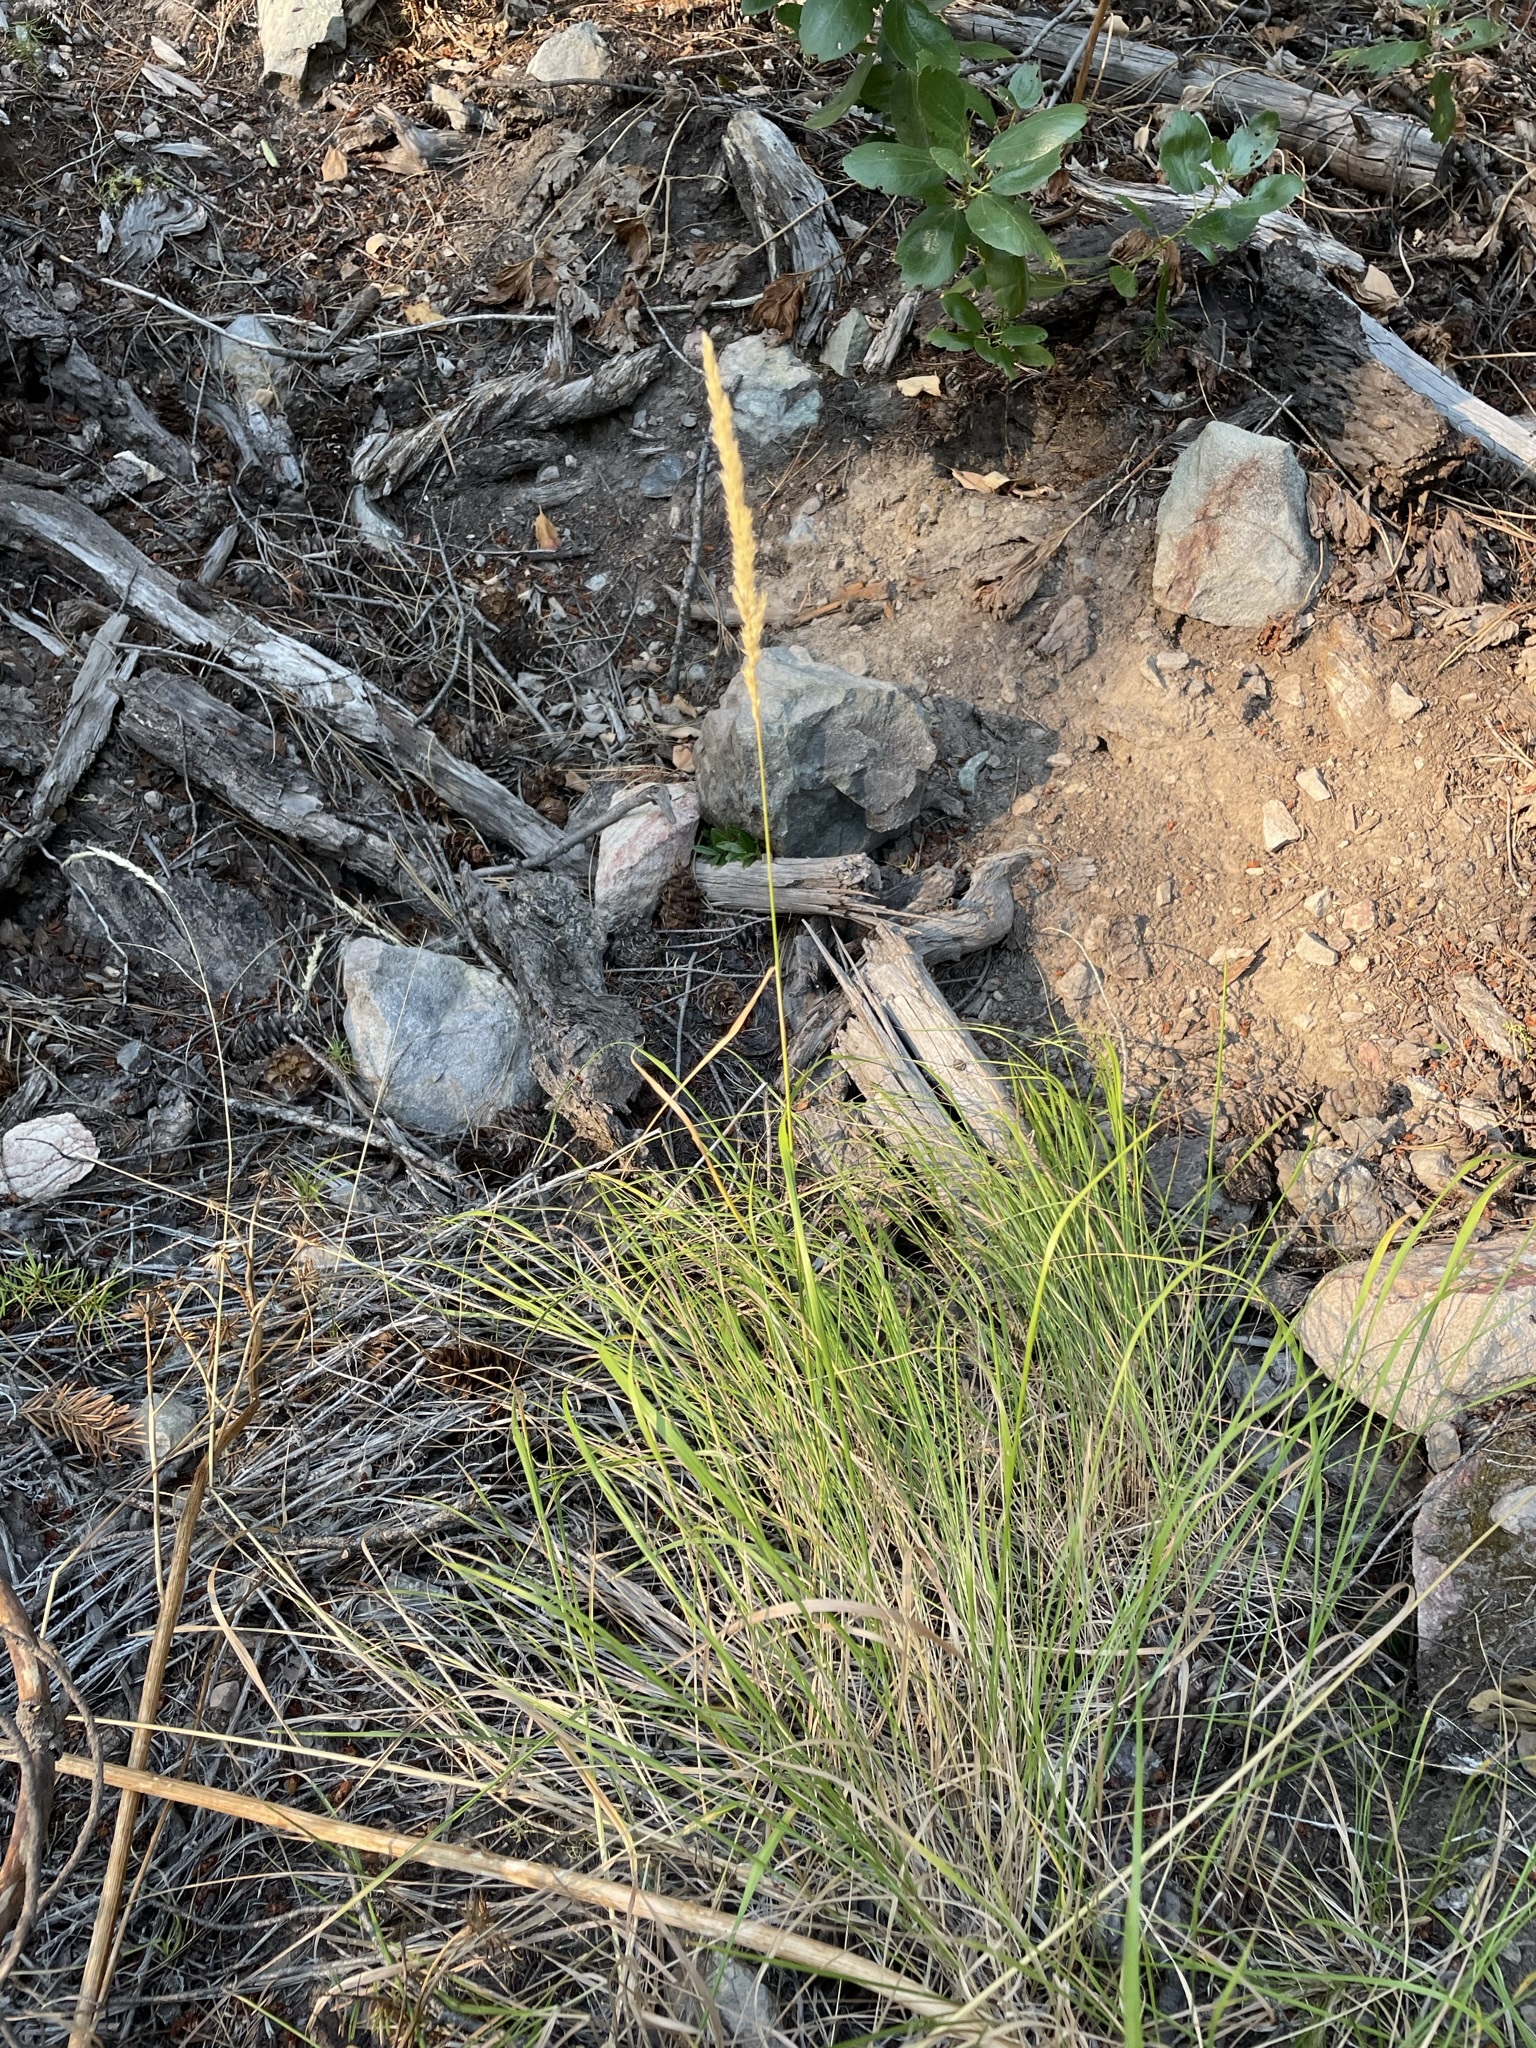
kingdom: Plantae
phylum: Tracheophyta
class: Liliopsida
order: Poales
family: Poaceae
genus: Calamagrostis
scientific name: Calamagrostis rubescens
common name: Pine grass
